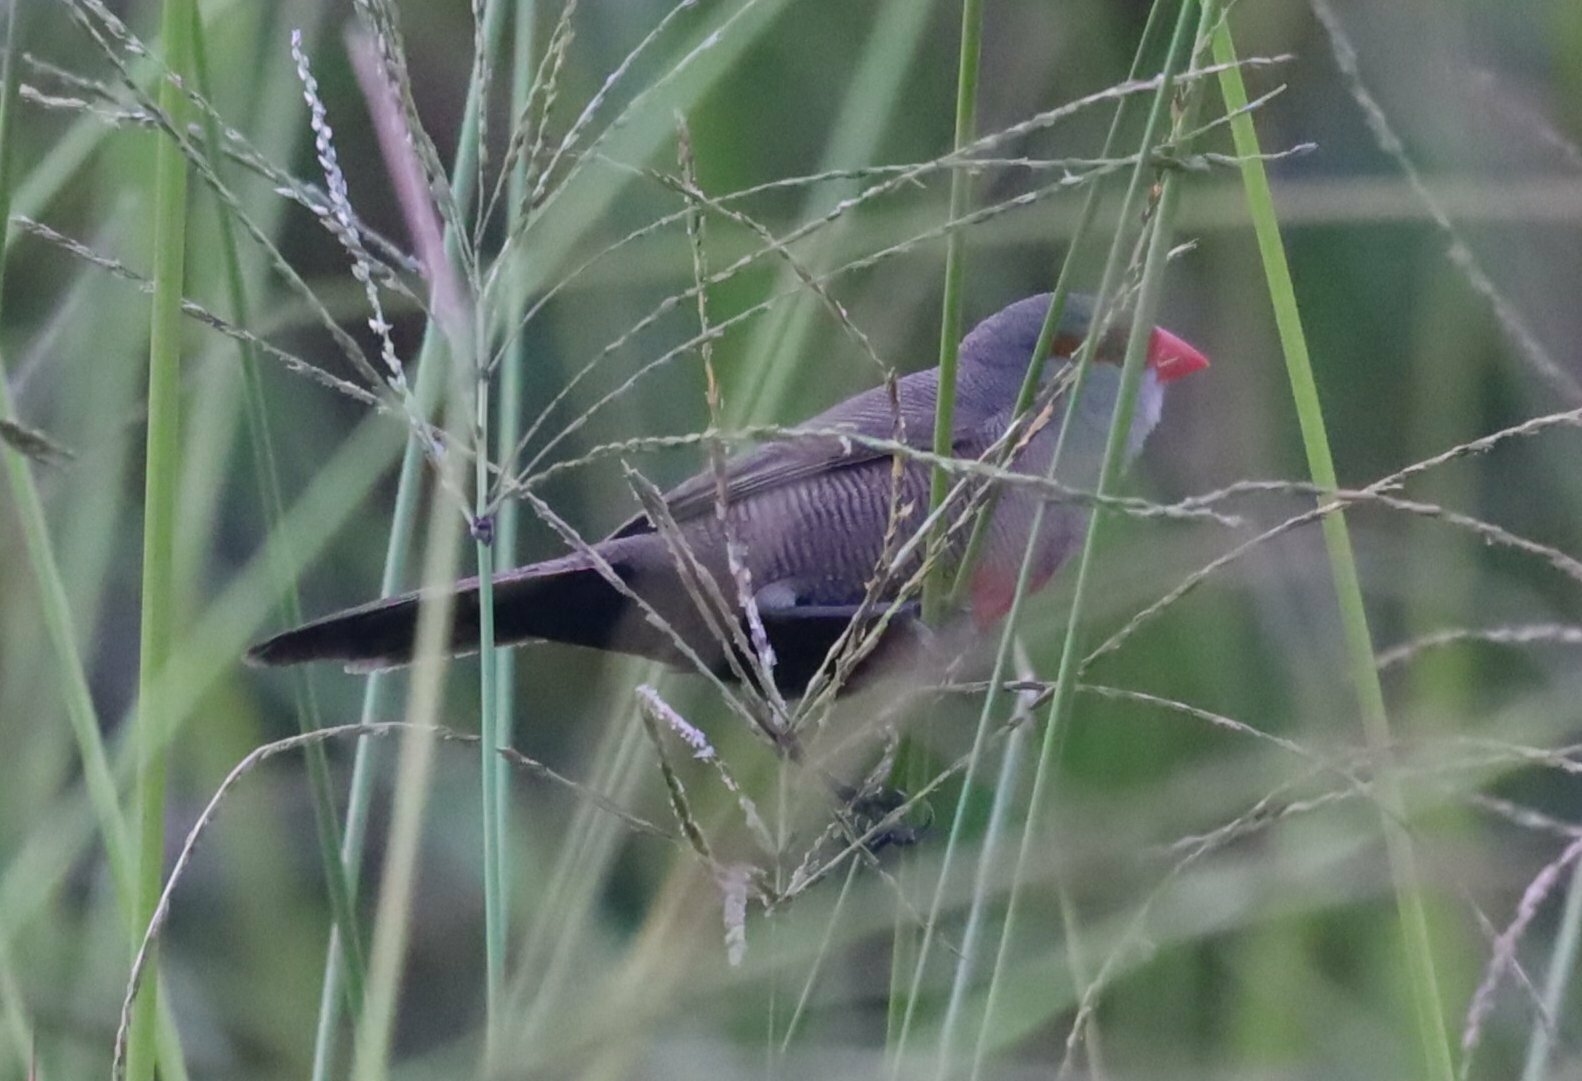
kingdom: Animalia
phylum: Chordata
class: Aves
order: Passeriformes
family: Estrildidae
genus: Estrilda
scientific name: Estrilda astrild
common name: Common waxbill
